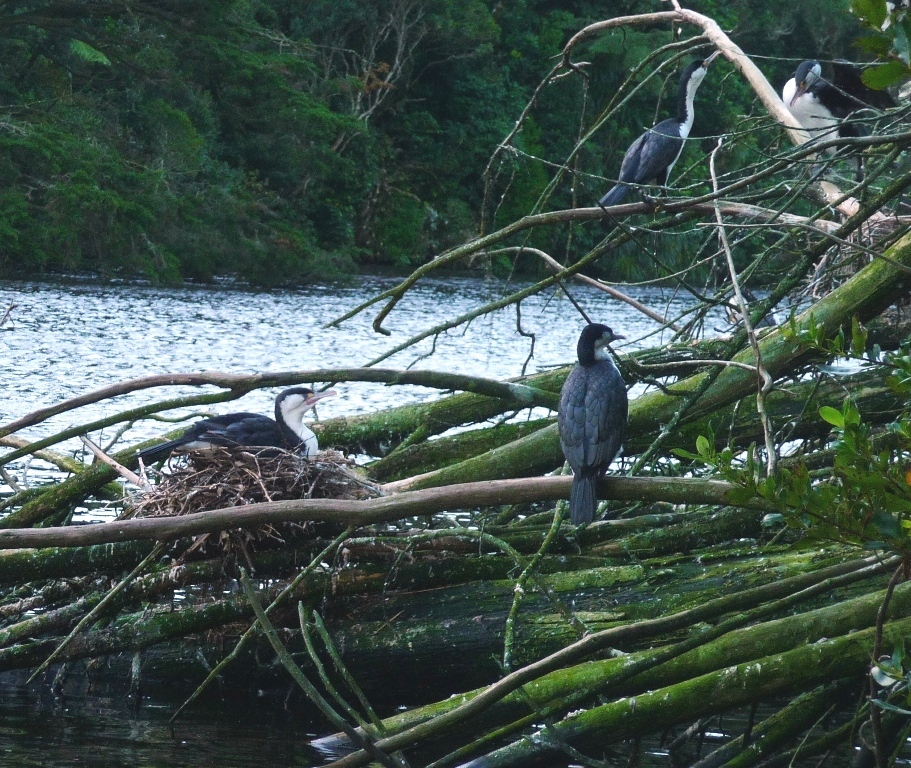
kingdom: Animalia
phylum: Chordata
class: Aves
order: Suliformes
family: Phalacrocoracidae
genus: Phalacrocorax
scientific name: Phalacrocorax varius
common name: Pied cormorant
